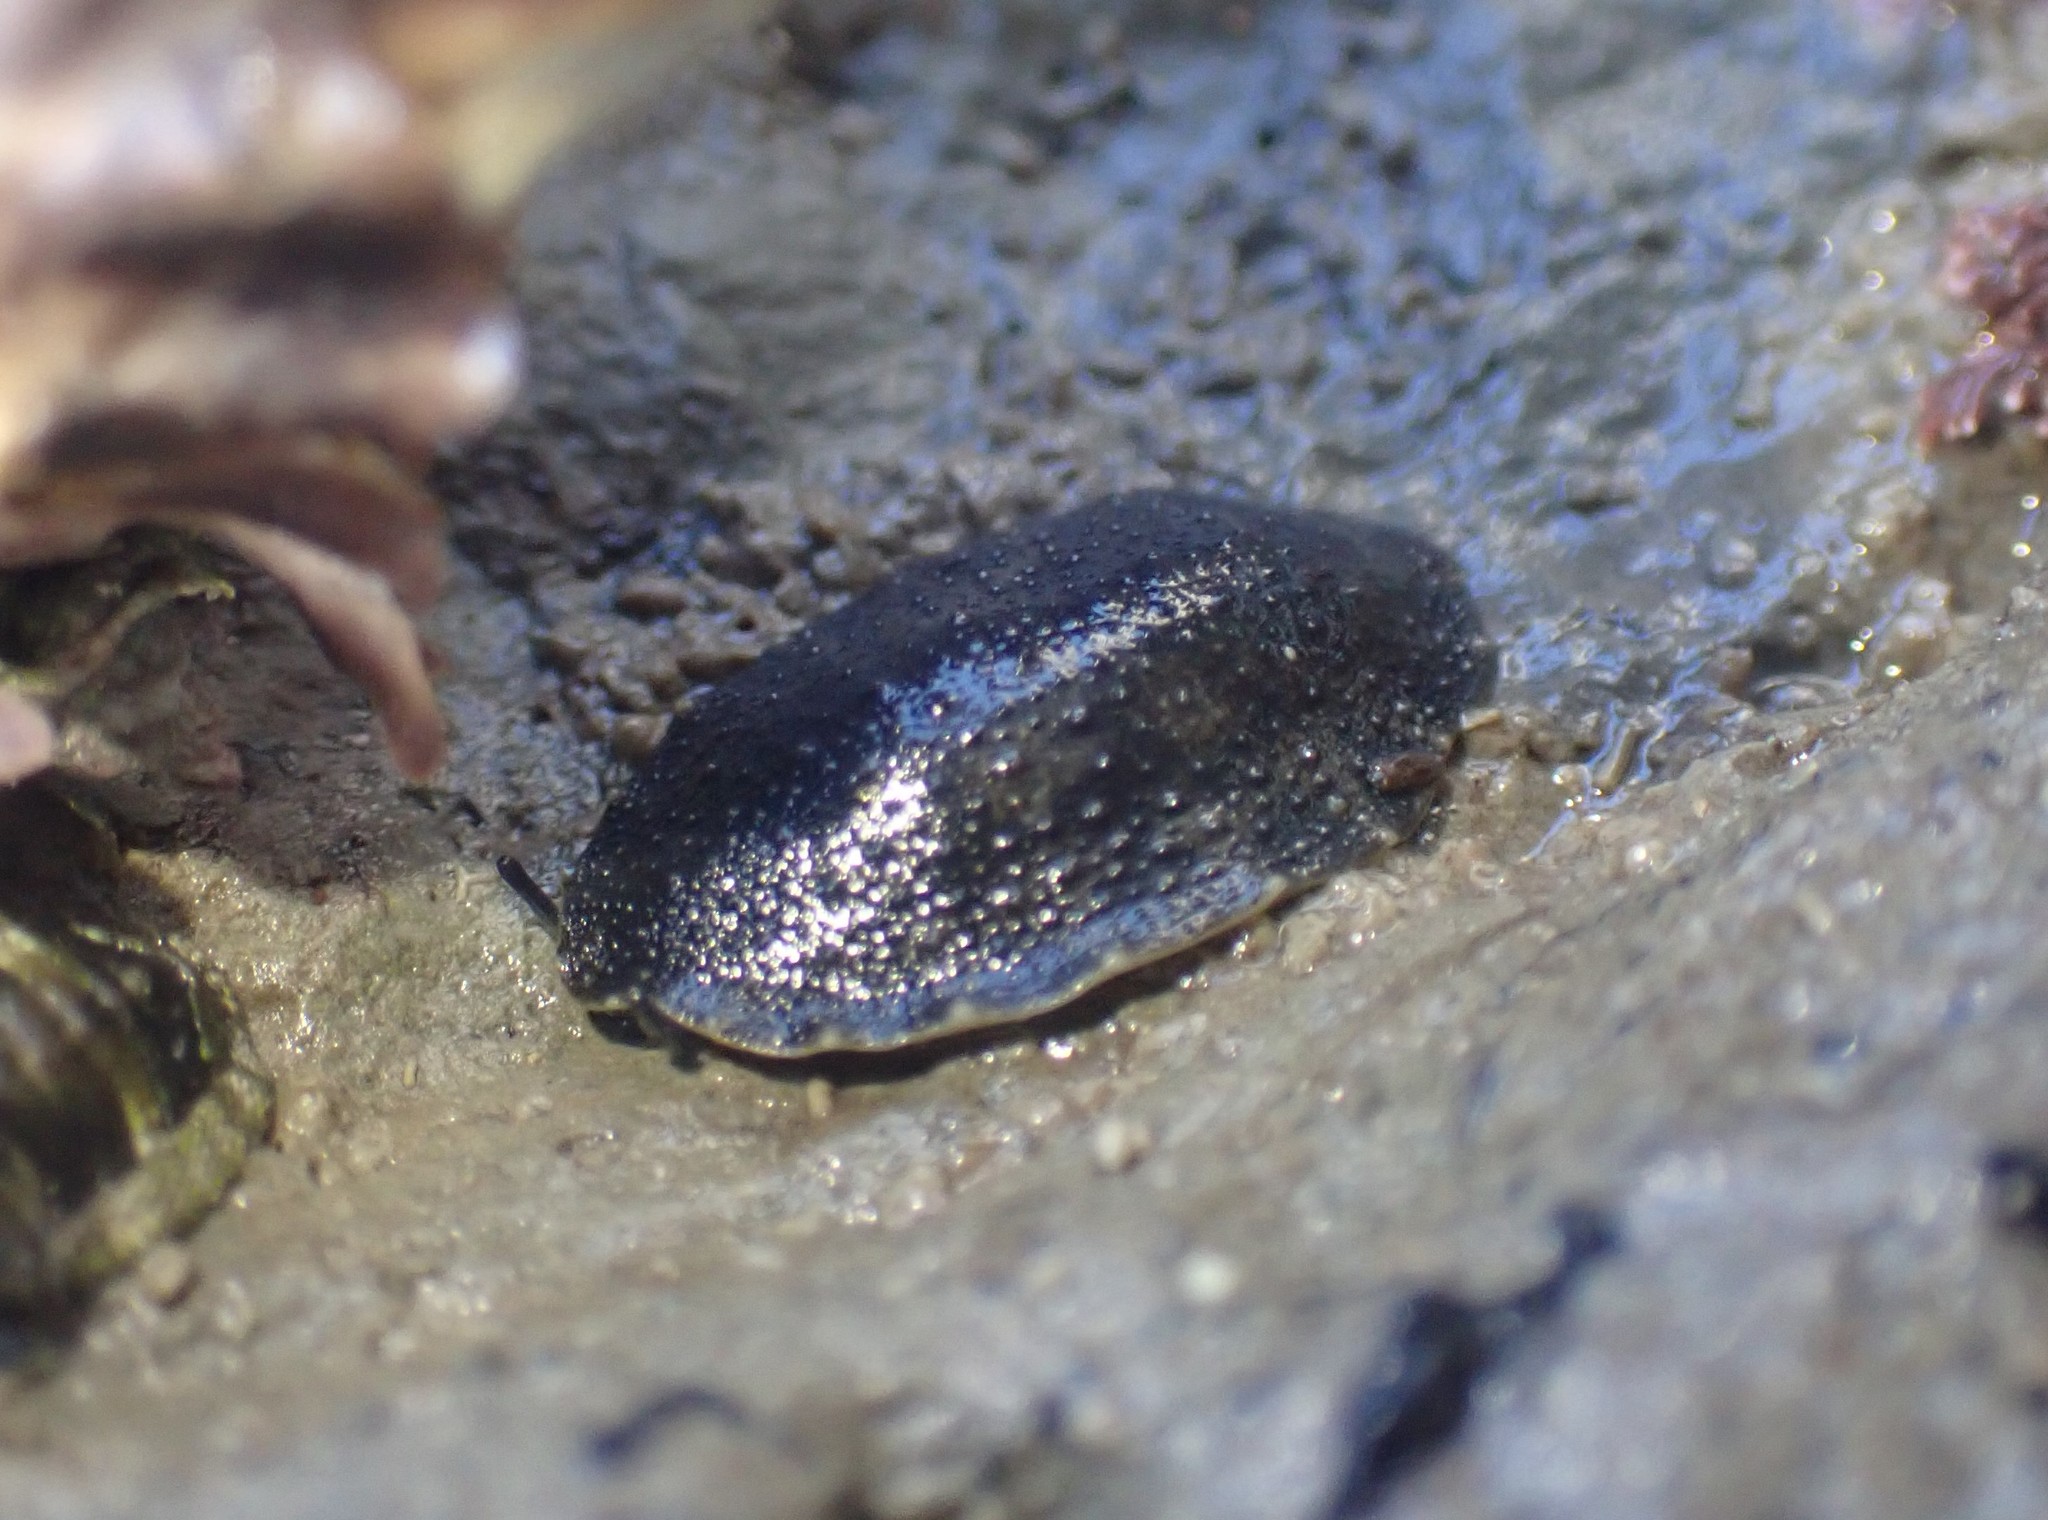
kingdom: Animalia
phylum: Mollusca
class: Gastropoda
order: Systellommatophora
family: Onchidiidae
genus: Onchidella
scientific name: Onchidella nigricans
